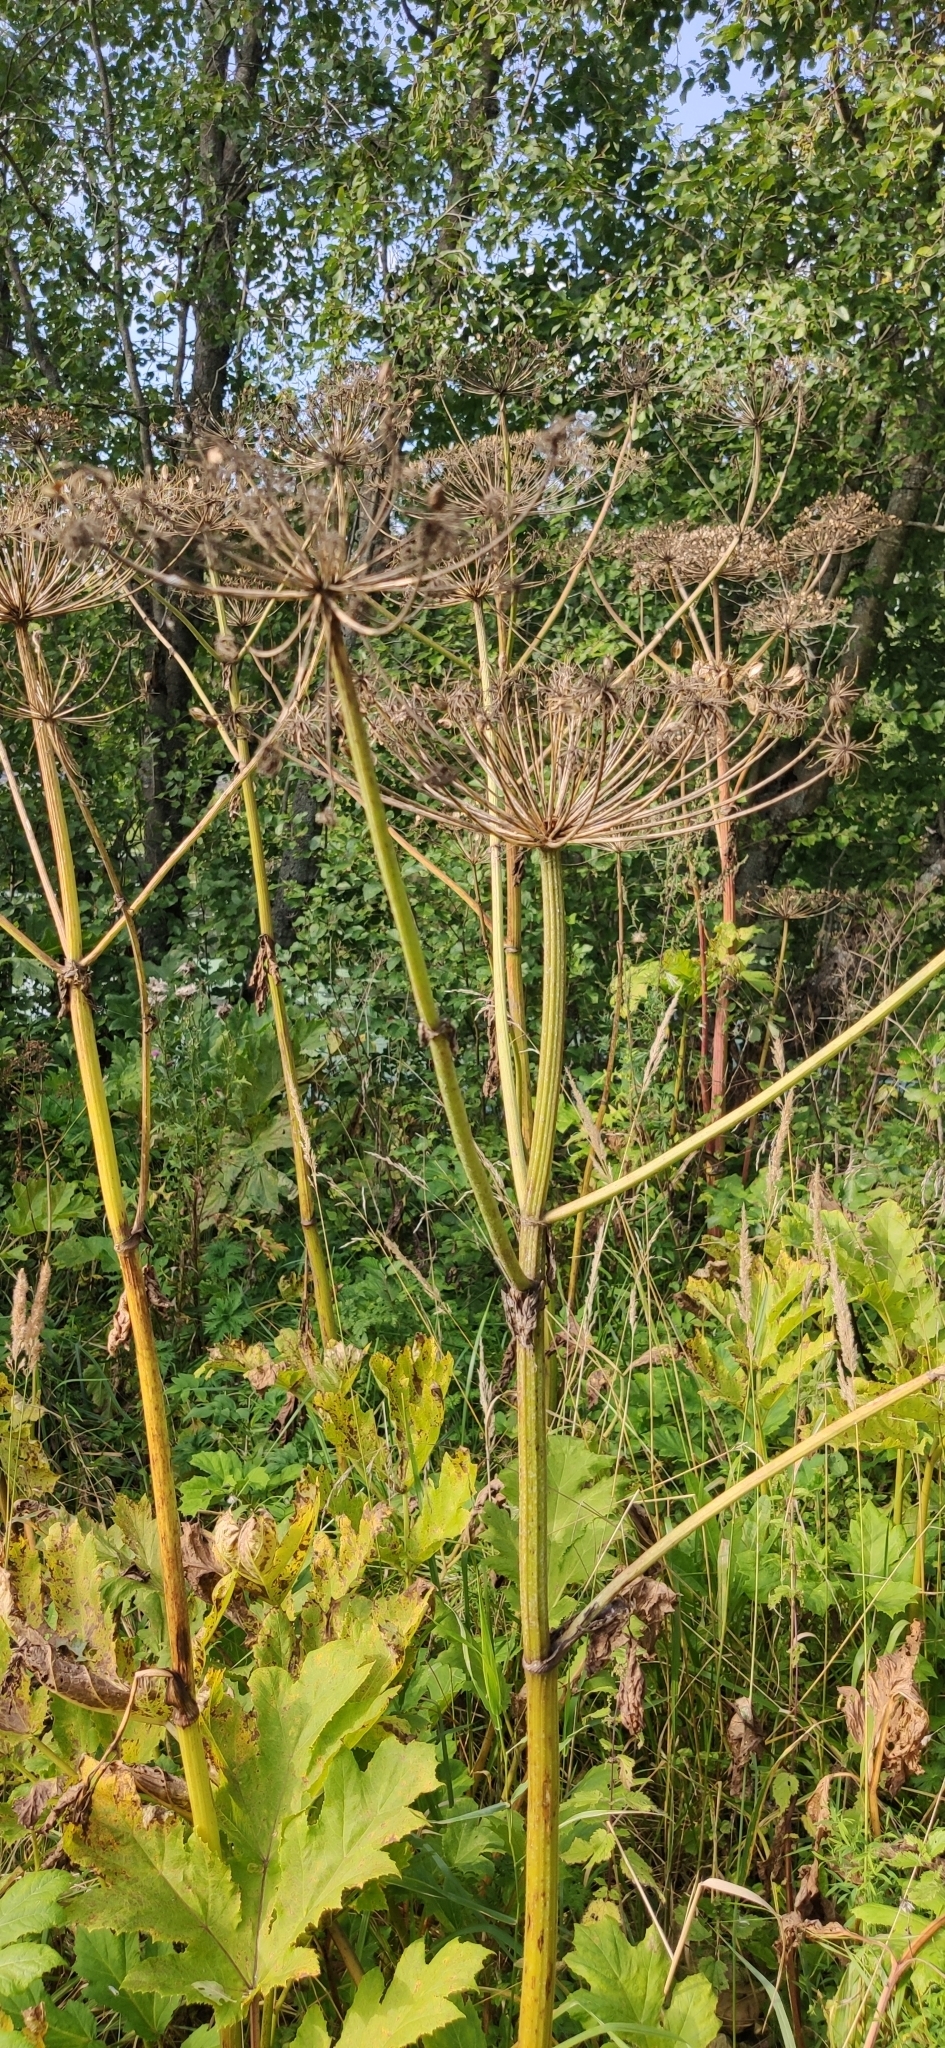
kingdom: Plantae
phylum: Tracheophyta
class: Magnoliopsida
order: Apiales
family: Apiaceae
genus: Heracleum
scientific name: Heracleum sosnowskyi
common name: Sosnowsky's hogweed
